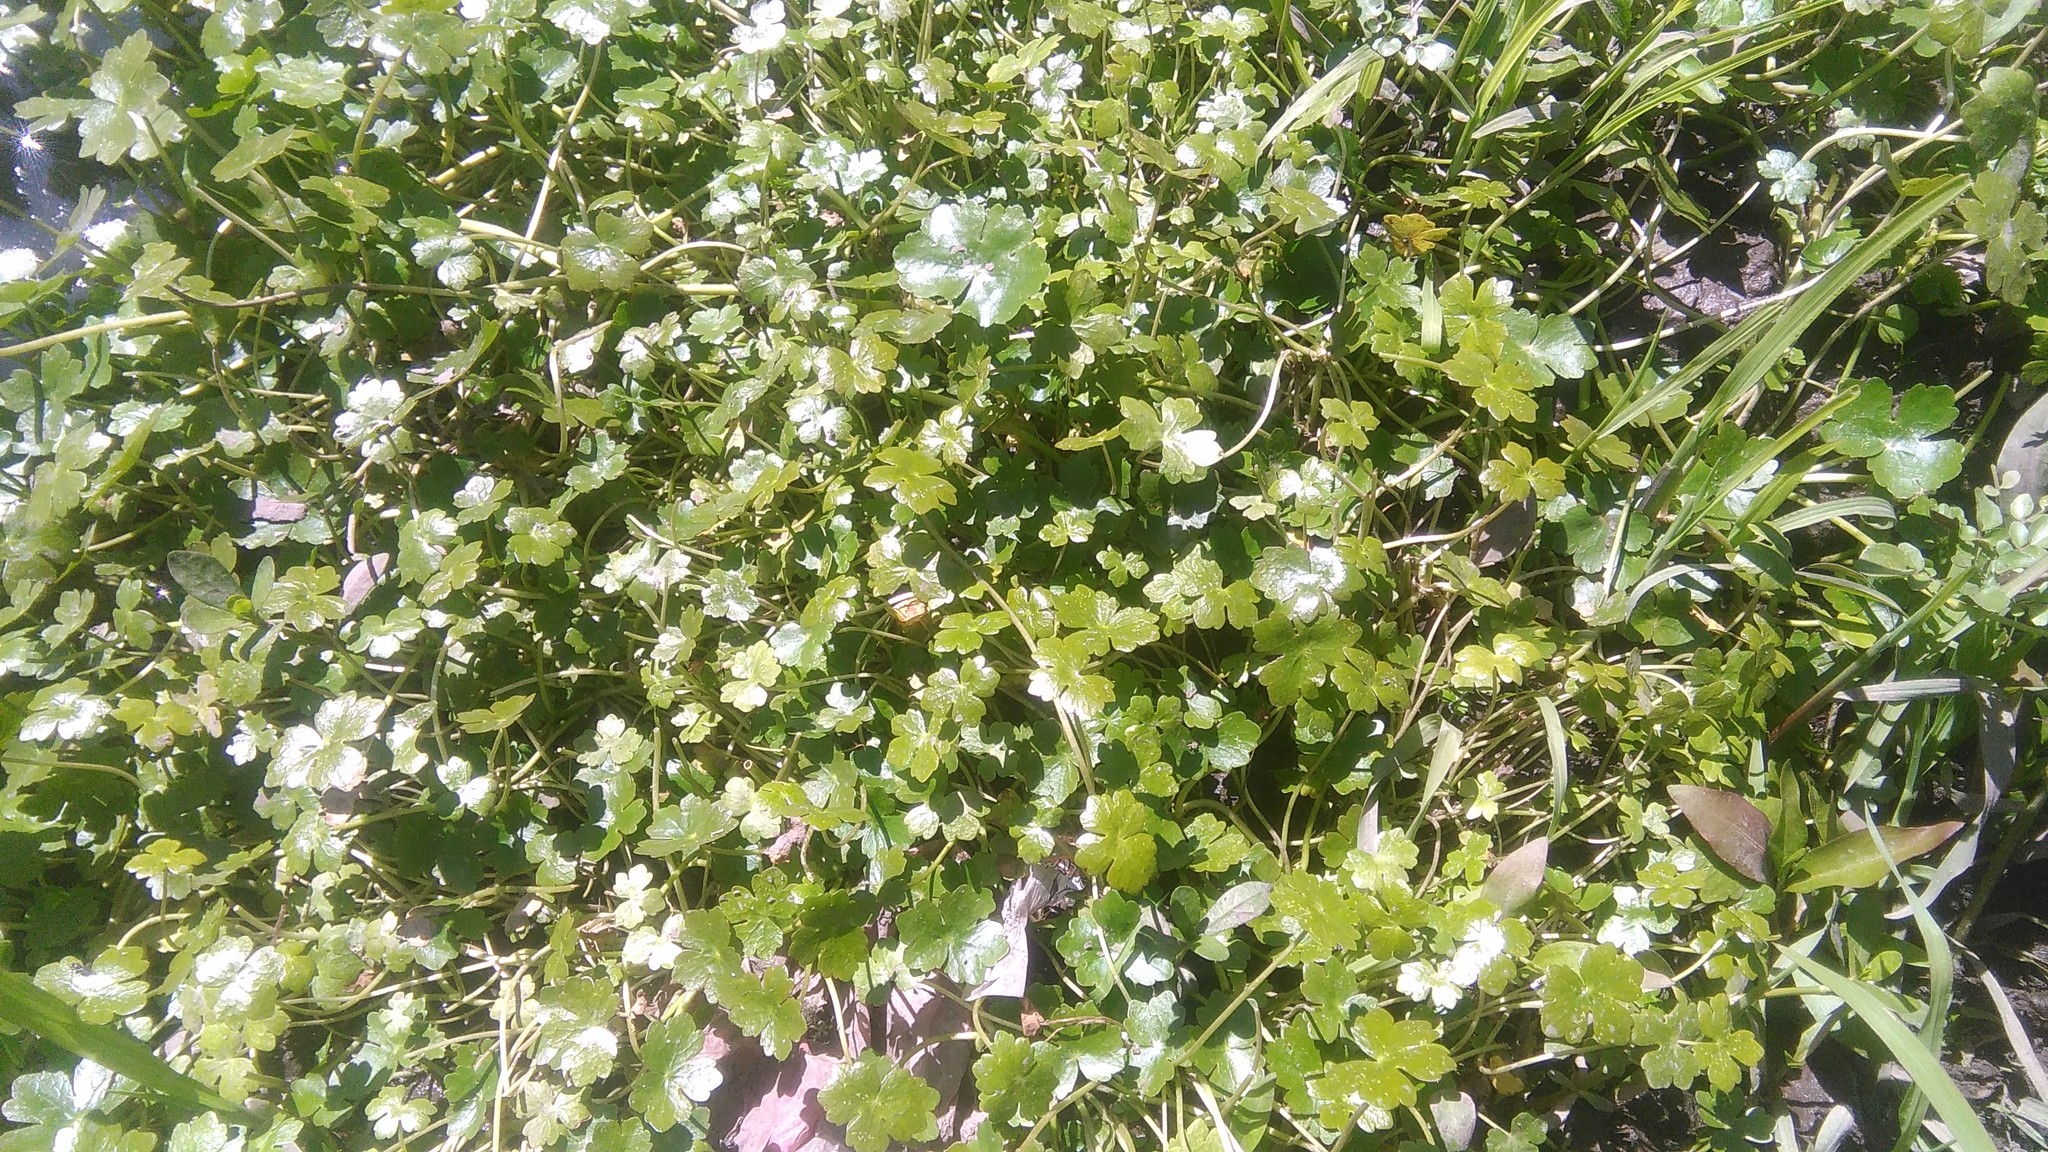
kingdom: Plantae
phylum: Tracheophyta
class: Magnoliopsida
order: Apiales
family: Araliaceae
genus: Hydrocotyle
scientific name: Hydrocotyle ranunculoides
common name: Floating pennywort
